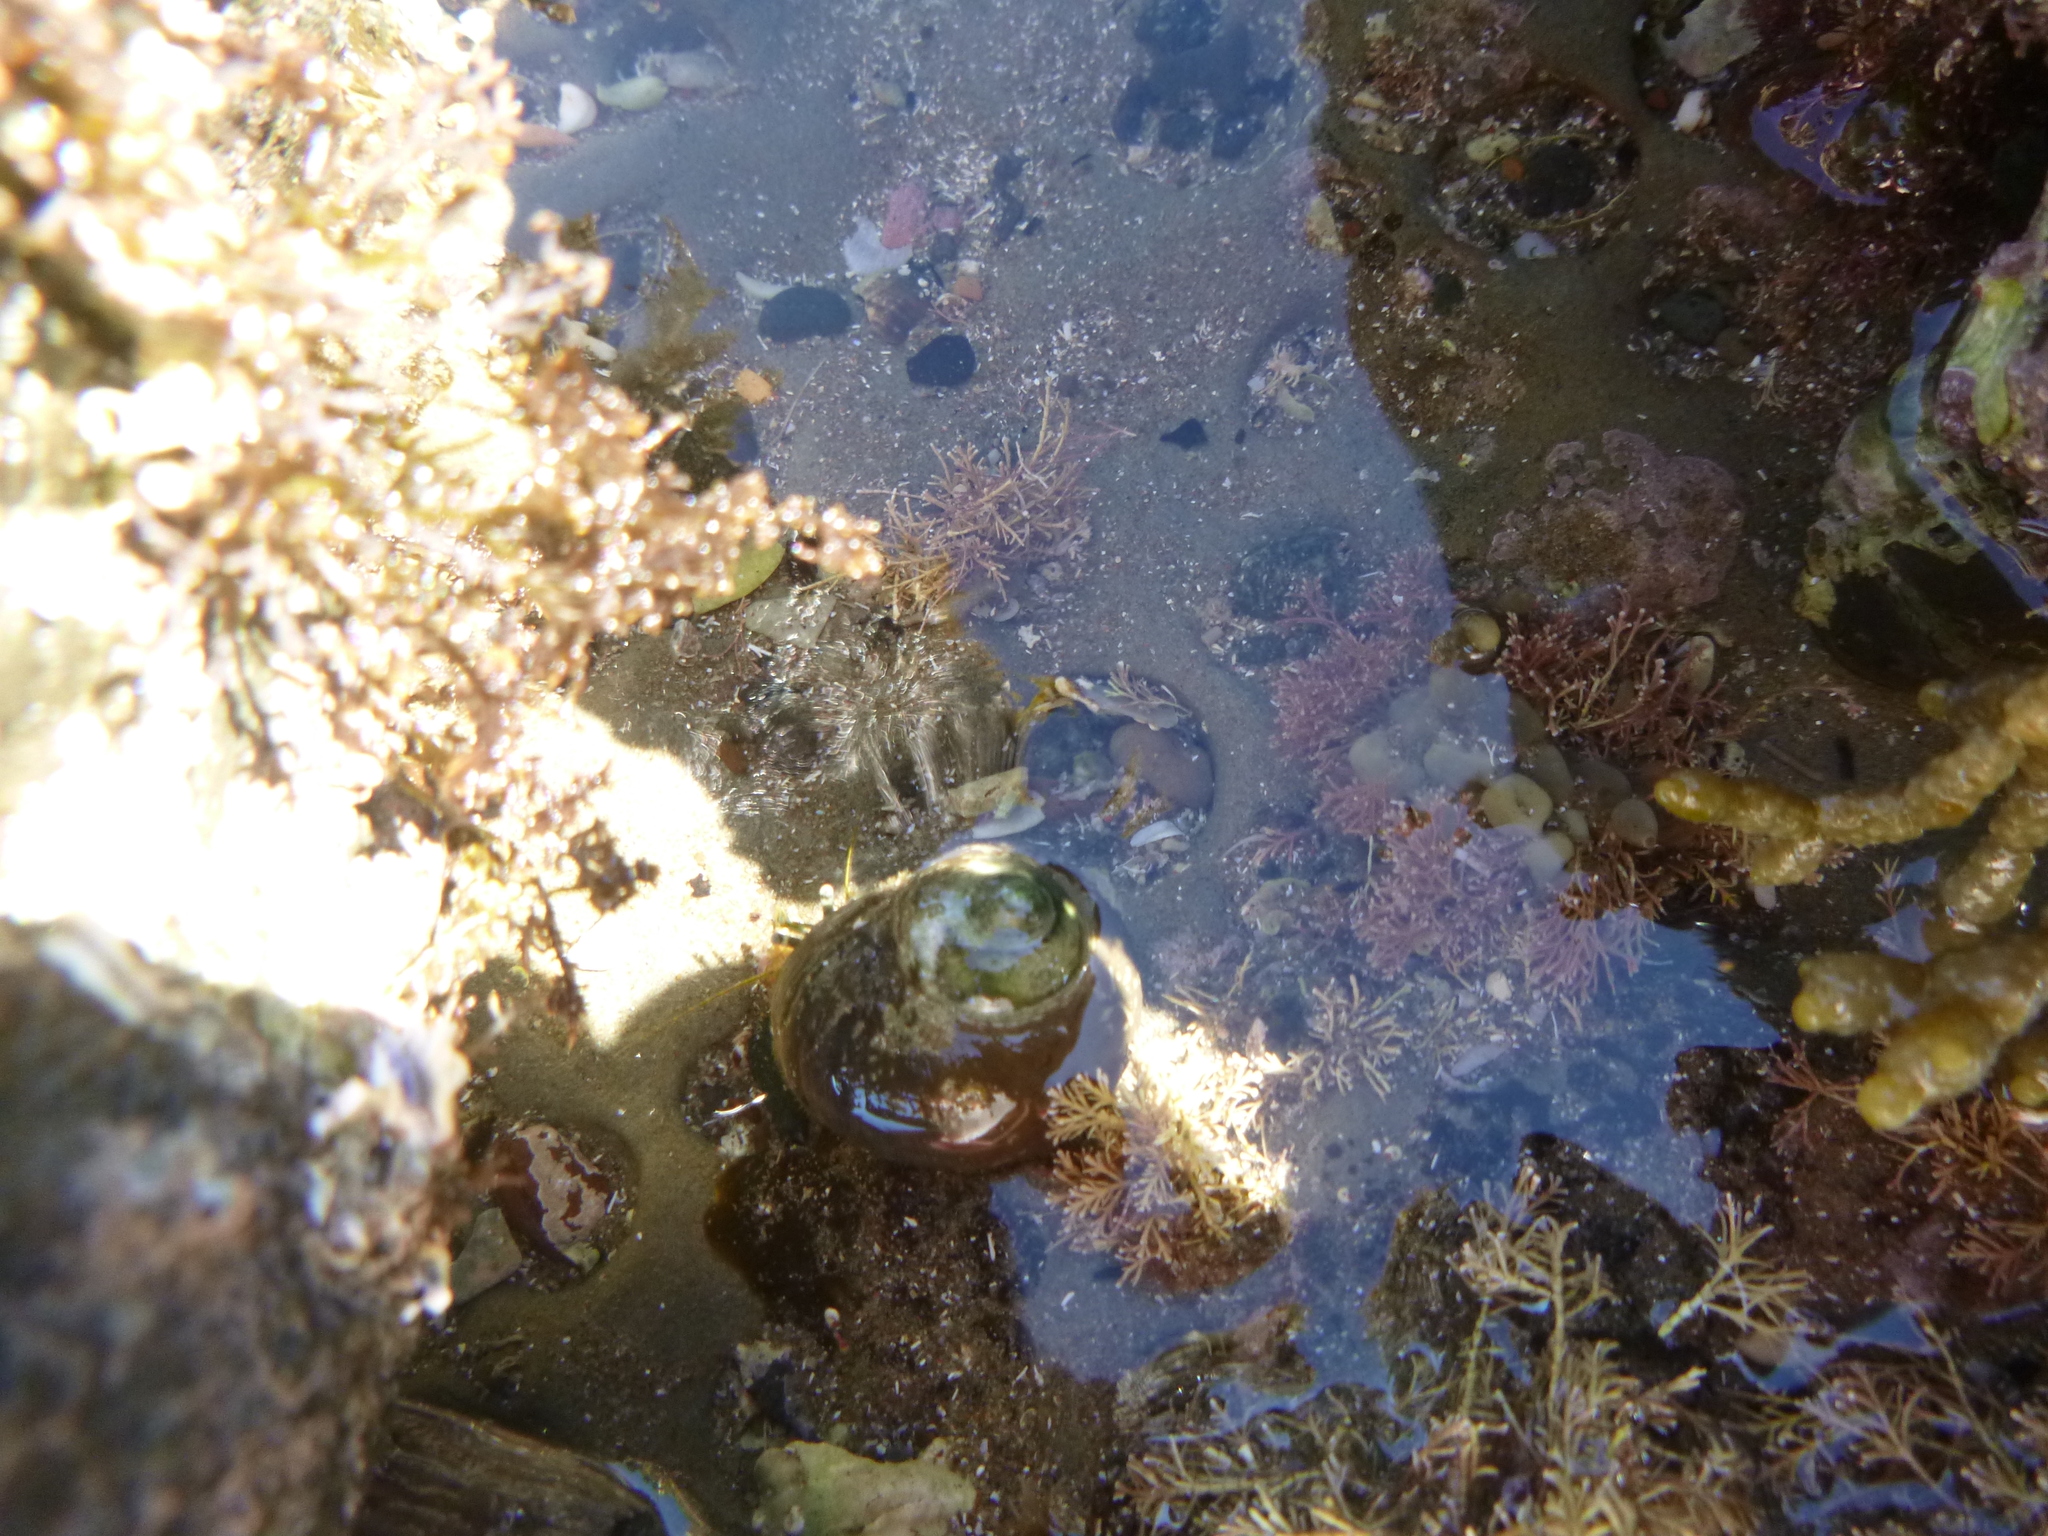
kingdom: Animalia
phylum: Mollusca
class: Gastropoda
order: Trochida
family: Turbinidae
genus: Lunella
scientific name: Lunella smaragda
